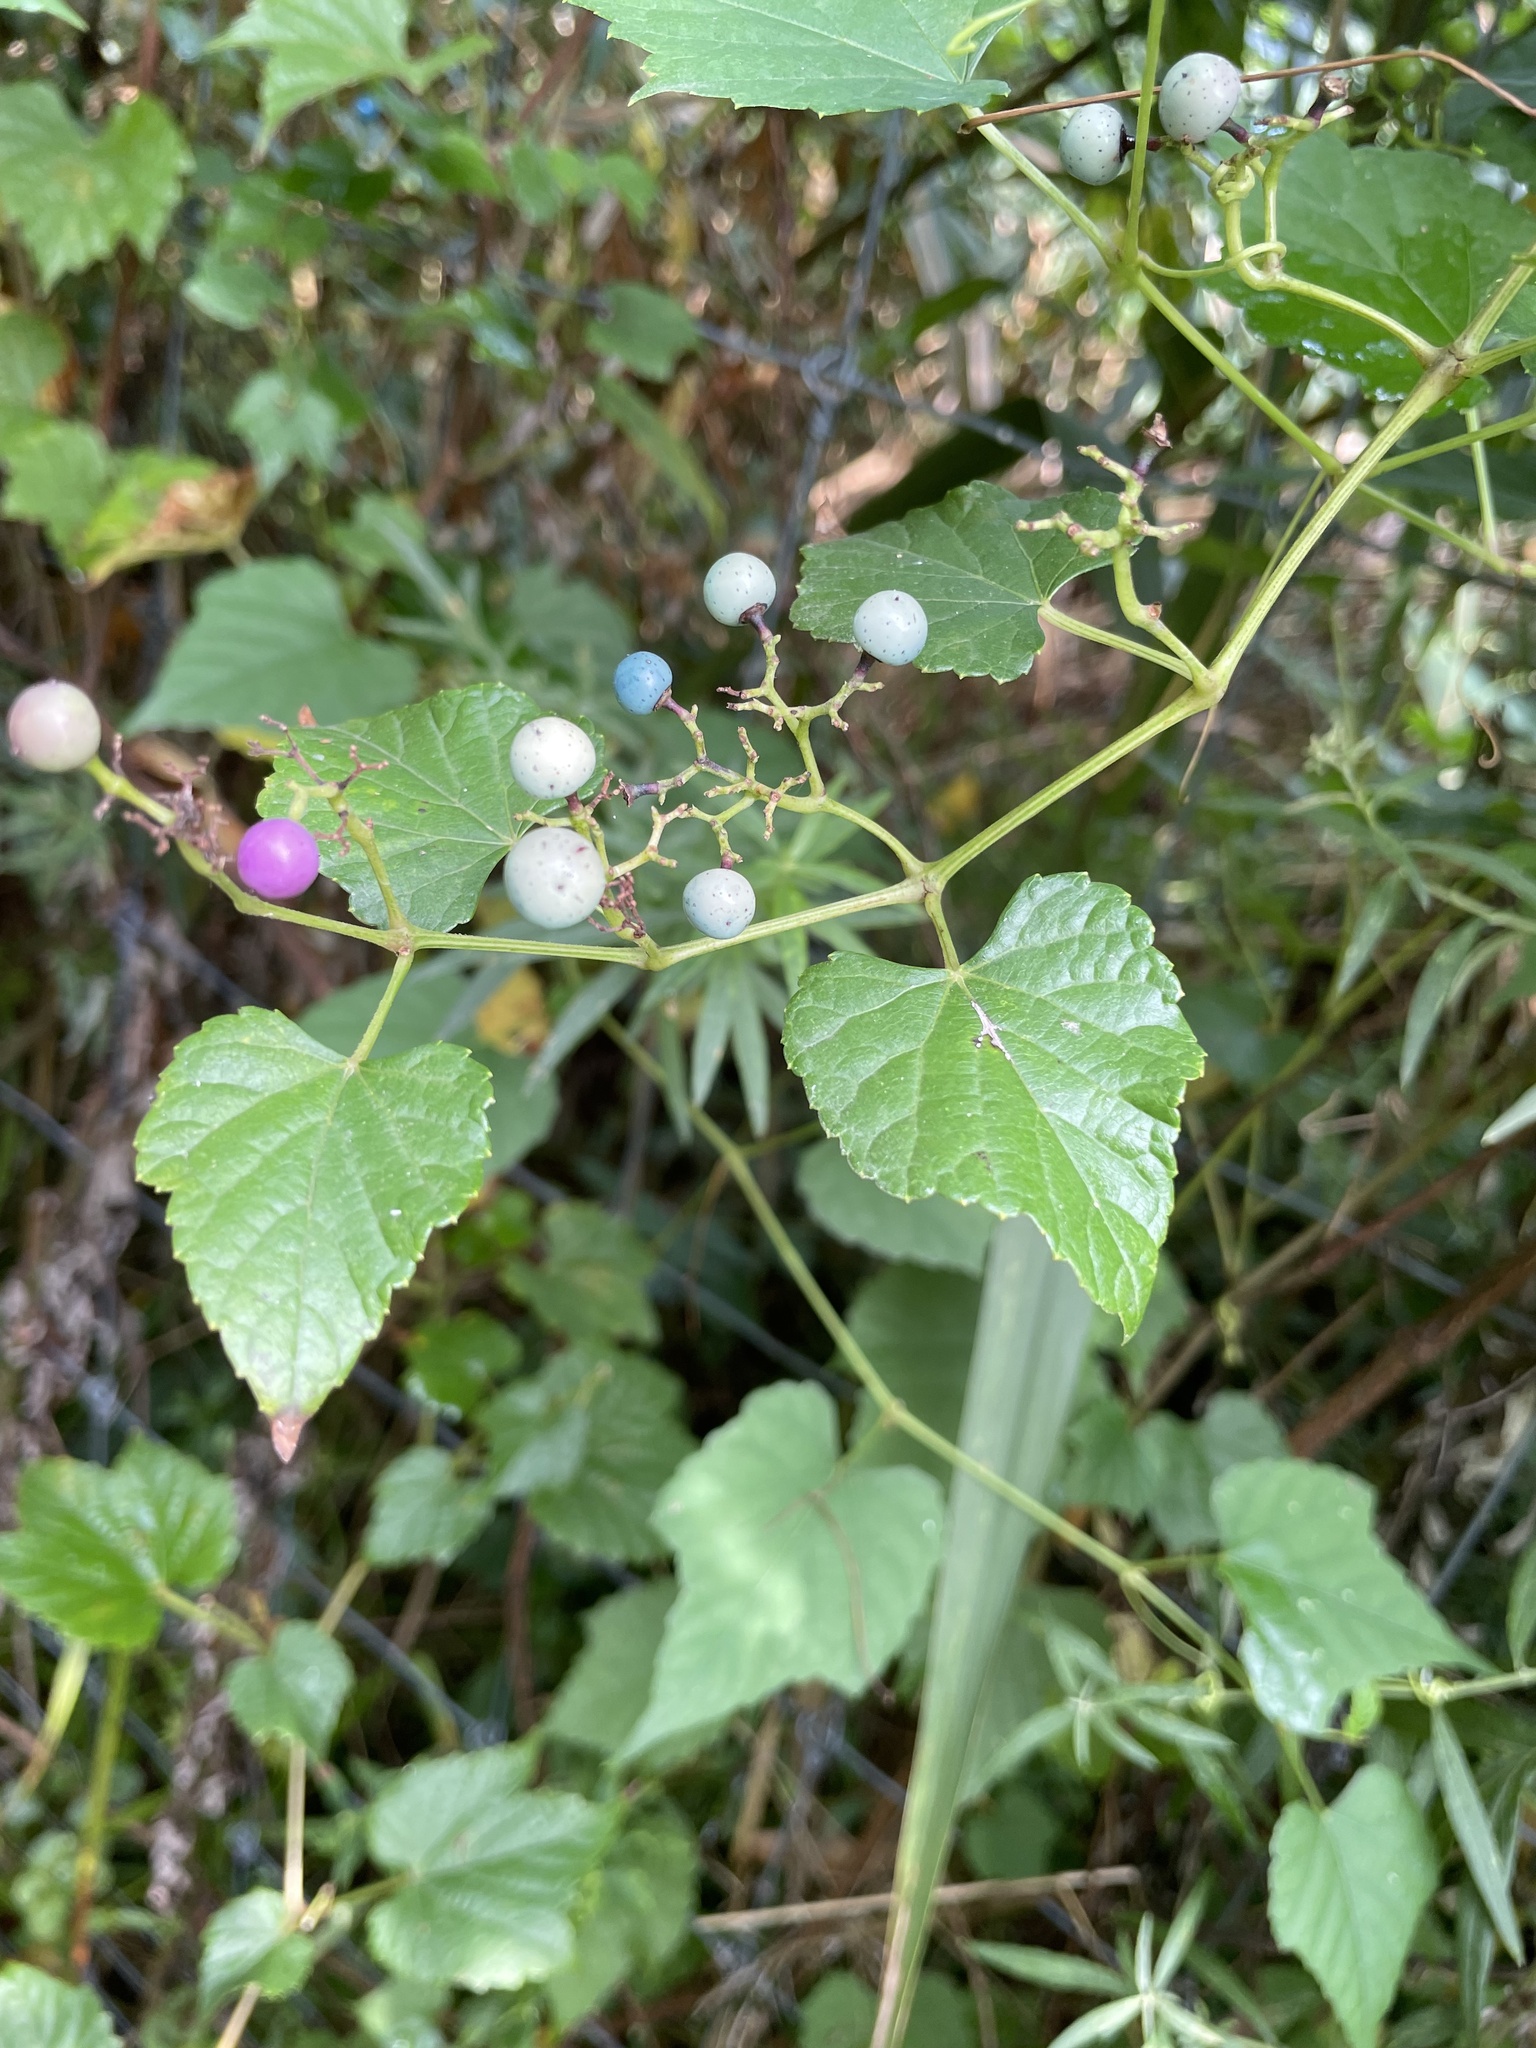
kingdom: Plantae
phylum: Tracheophyta
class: Magnoliopsida
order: Vitales
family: Vitaceae
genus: Ampelopsis
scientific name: Ampelopsis glandulosa
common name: Amur peppervine
